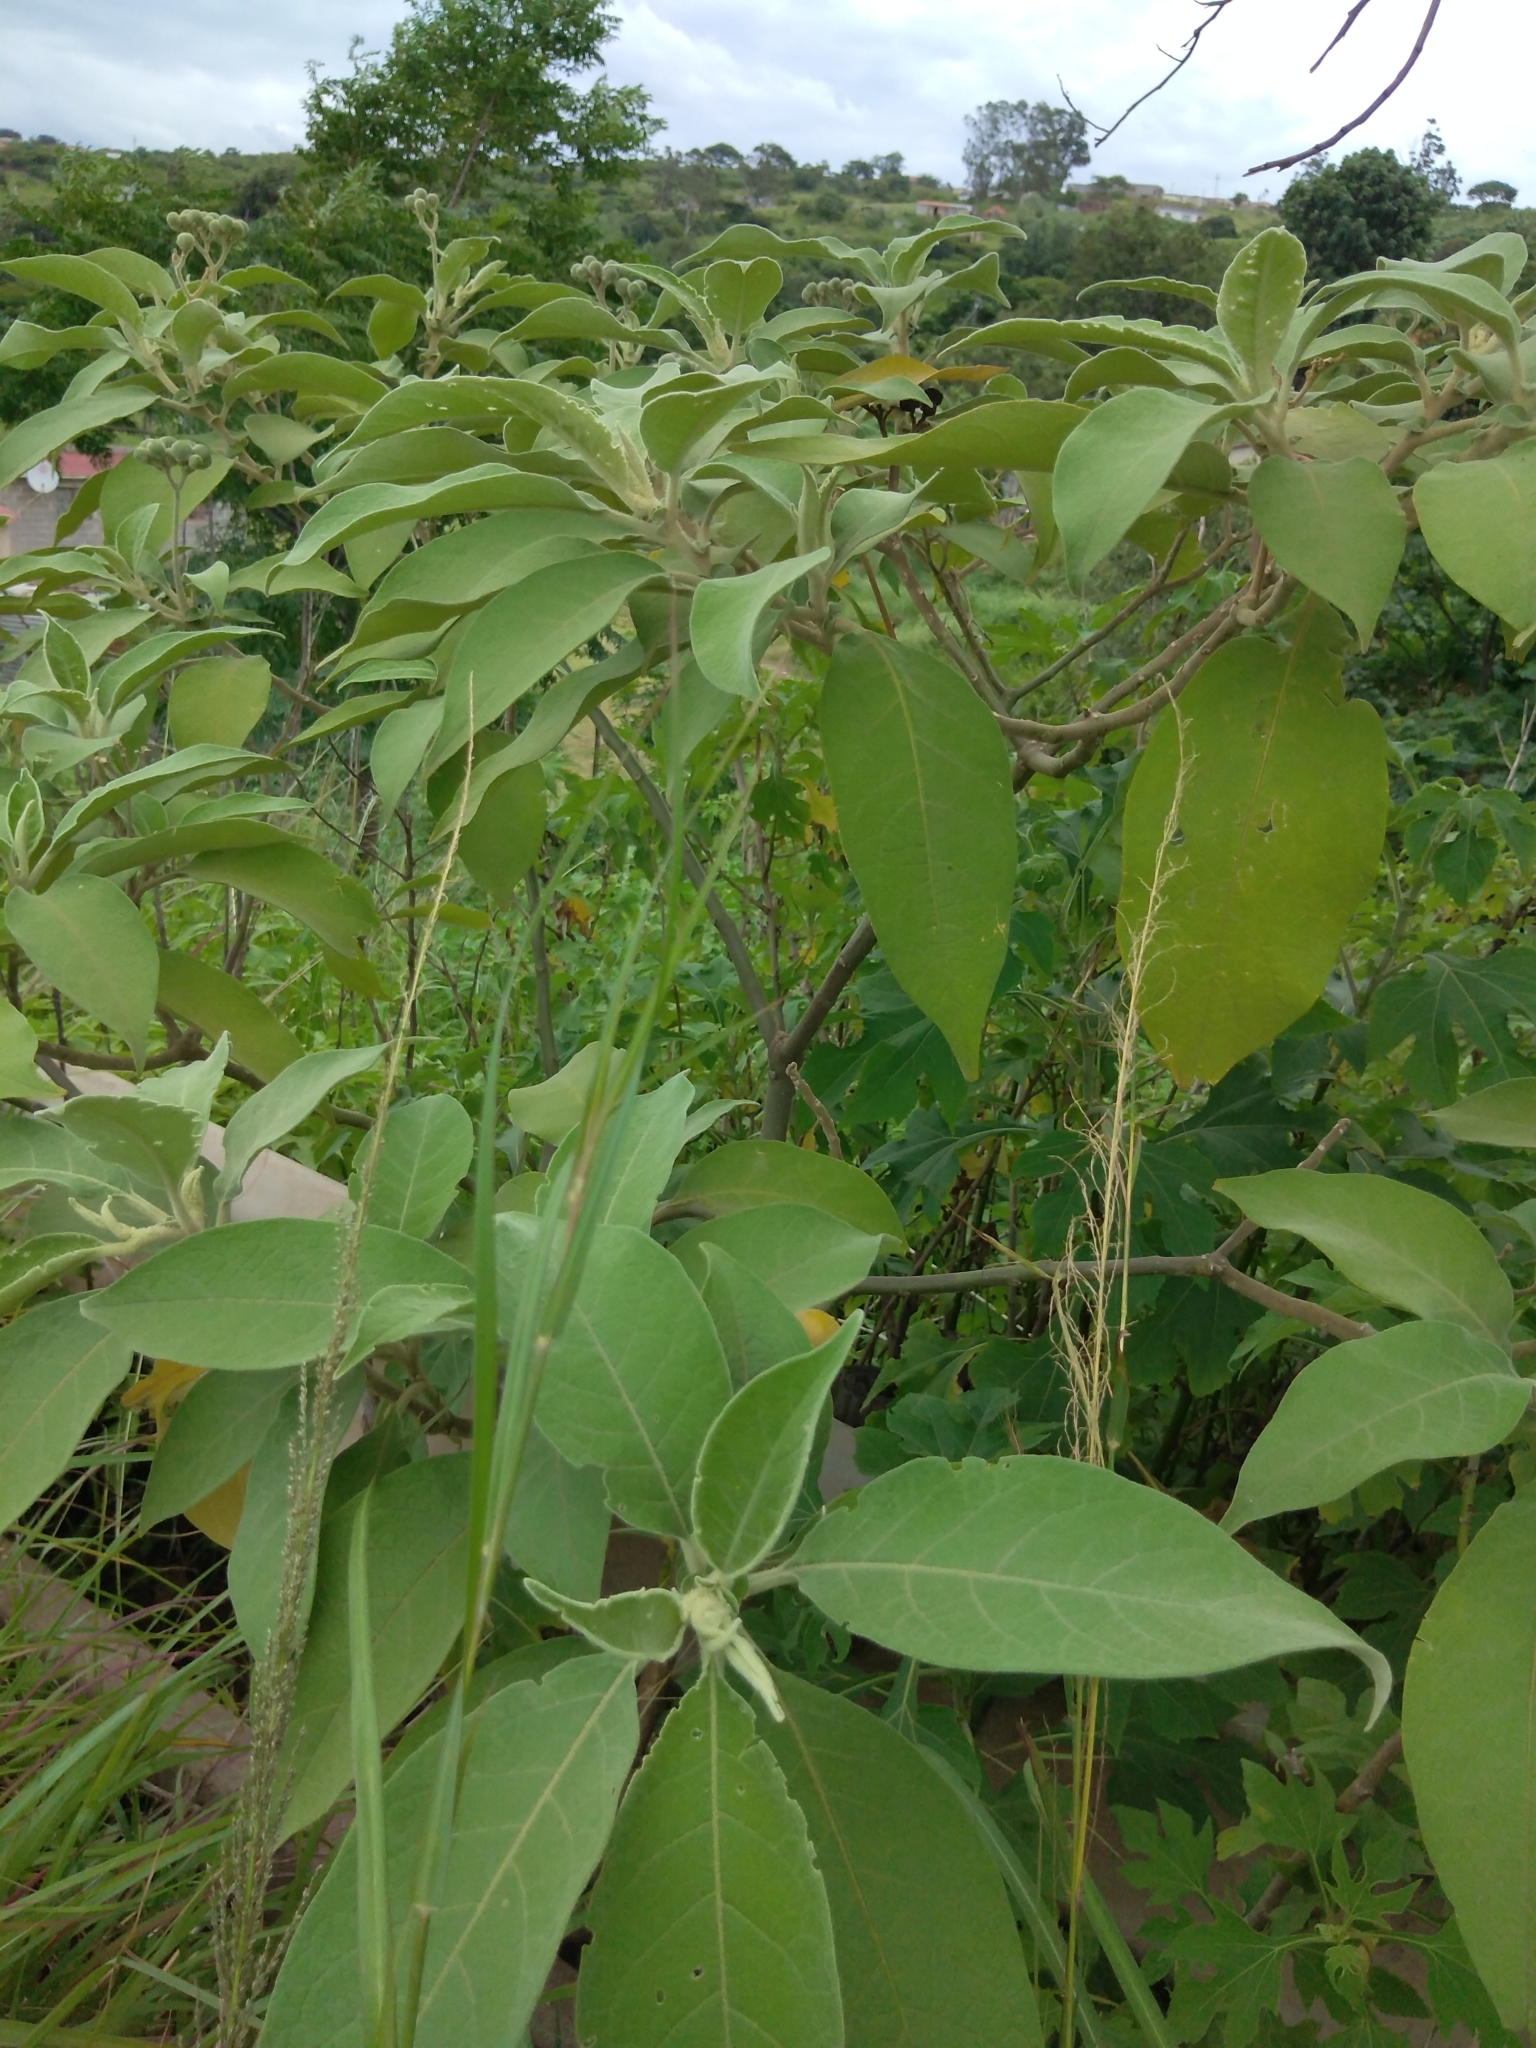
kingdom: Plantae
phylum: Tracheophyta
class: Magnoliopsida
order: Solanales
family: Solanaceae
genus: Solanum
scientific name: Solanum mauritianum
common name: Earleaf nightshade
